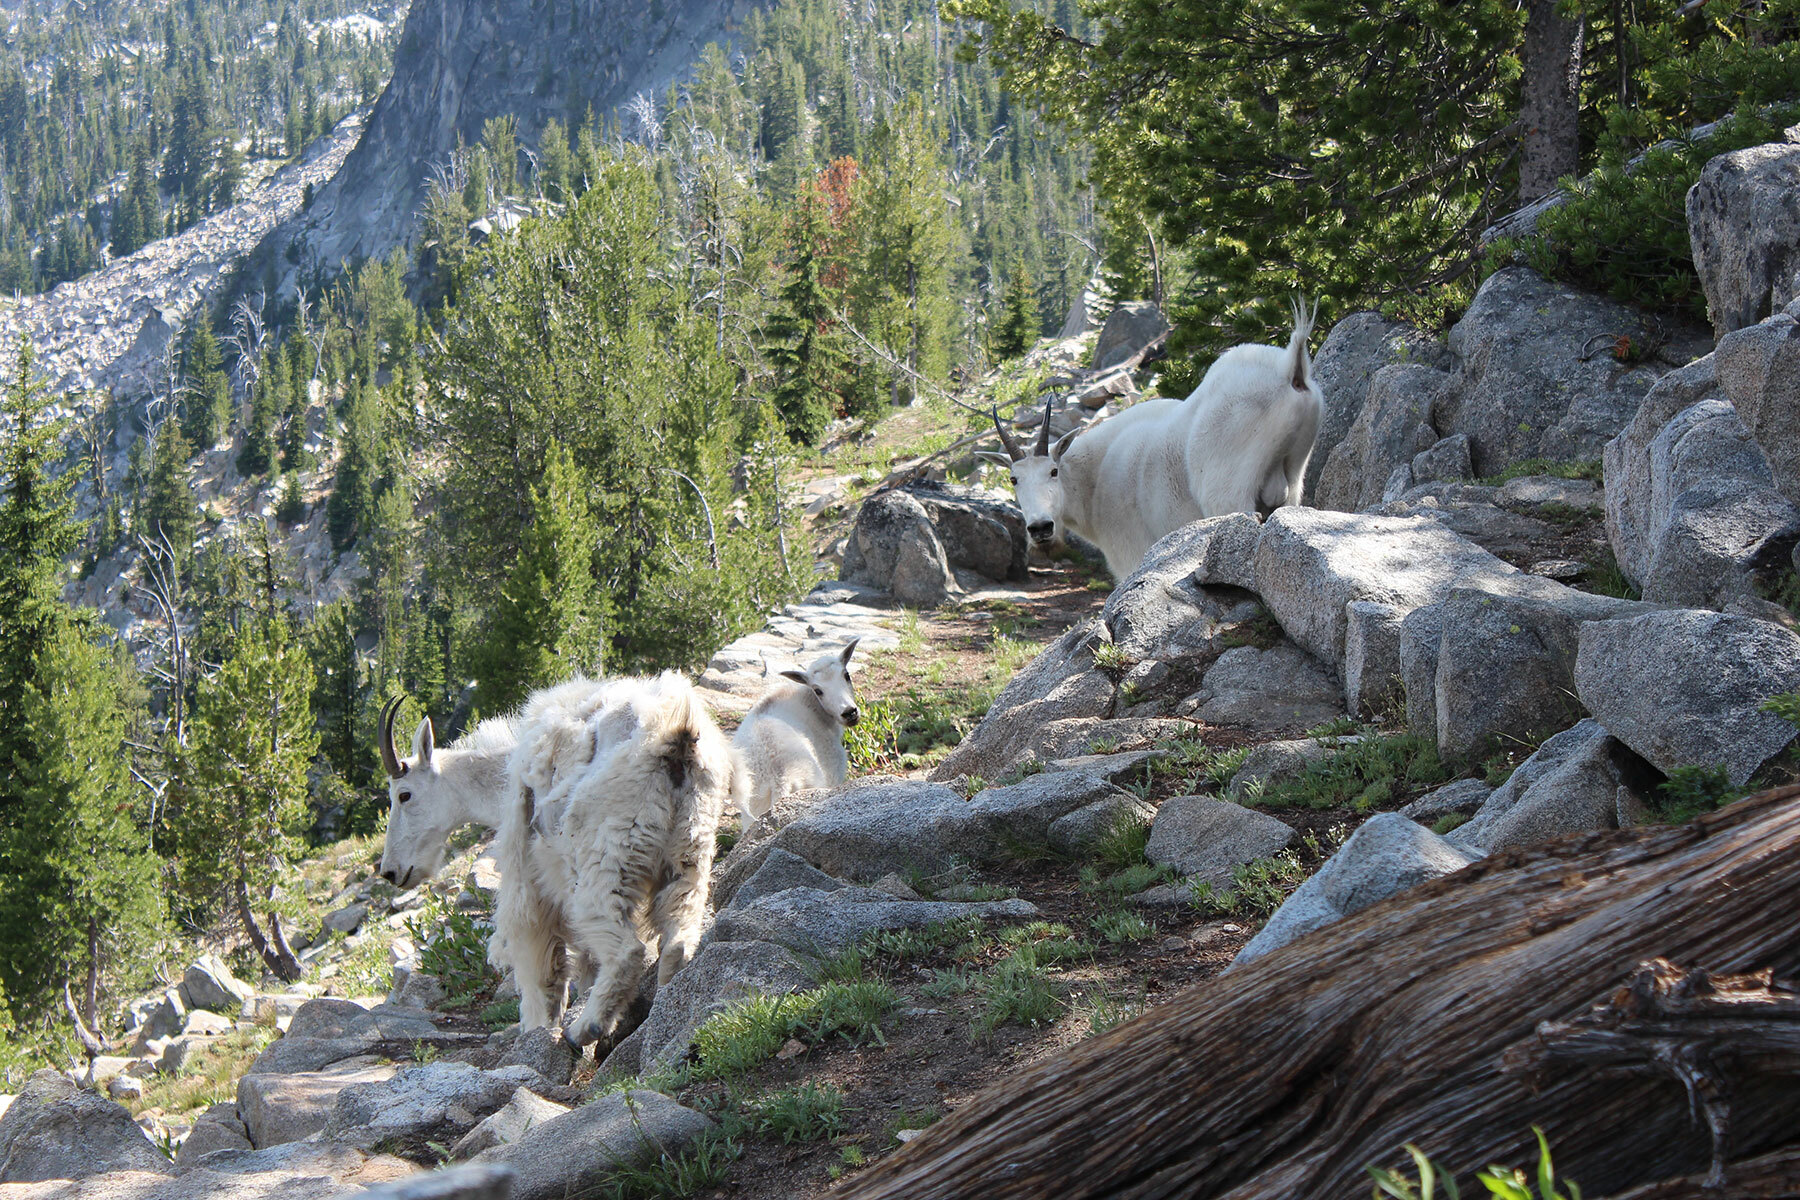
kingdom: Animalia
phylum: Chordata
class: Mammalia
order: Artiodactyla
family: Bovidae
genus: Oreamnos
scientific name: Oreamnos americanus
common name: Mountain goat
